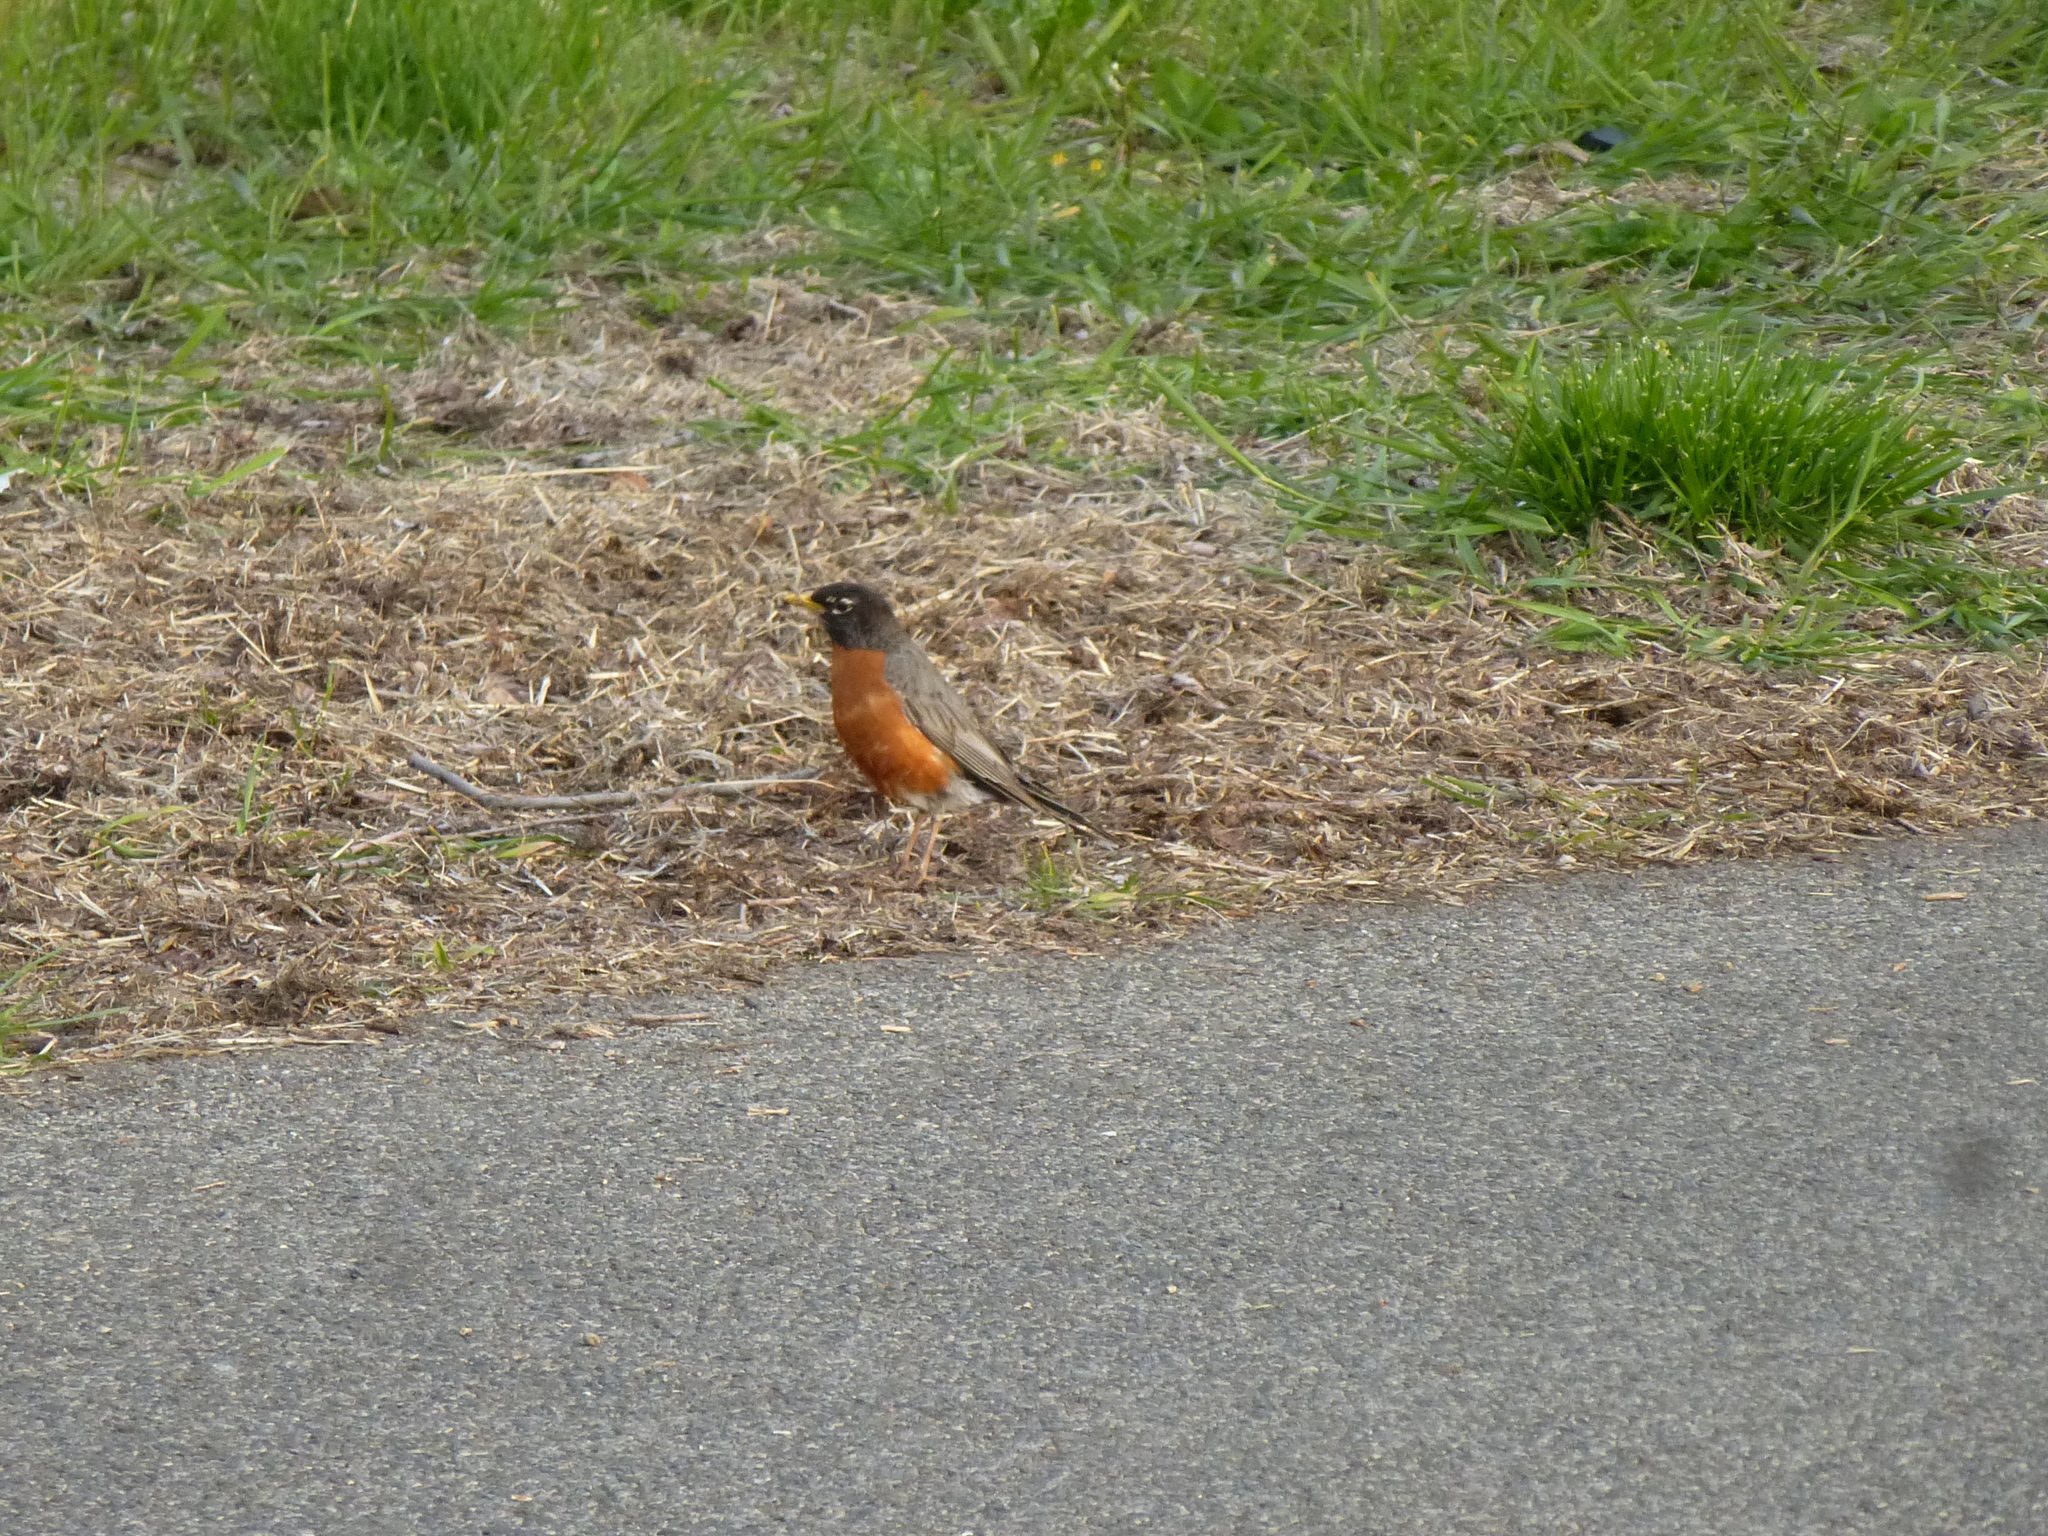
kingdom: Animalia
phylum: Chordata
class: Aves
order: Passeriformes
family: Turdidae
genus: Turdus
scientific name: Turdus migratorius
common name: American robin
